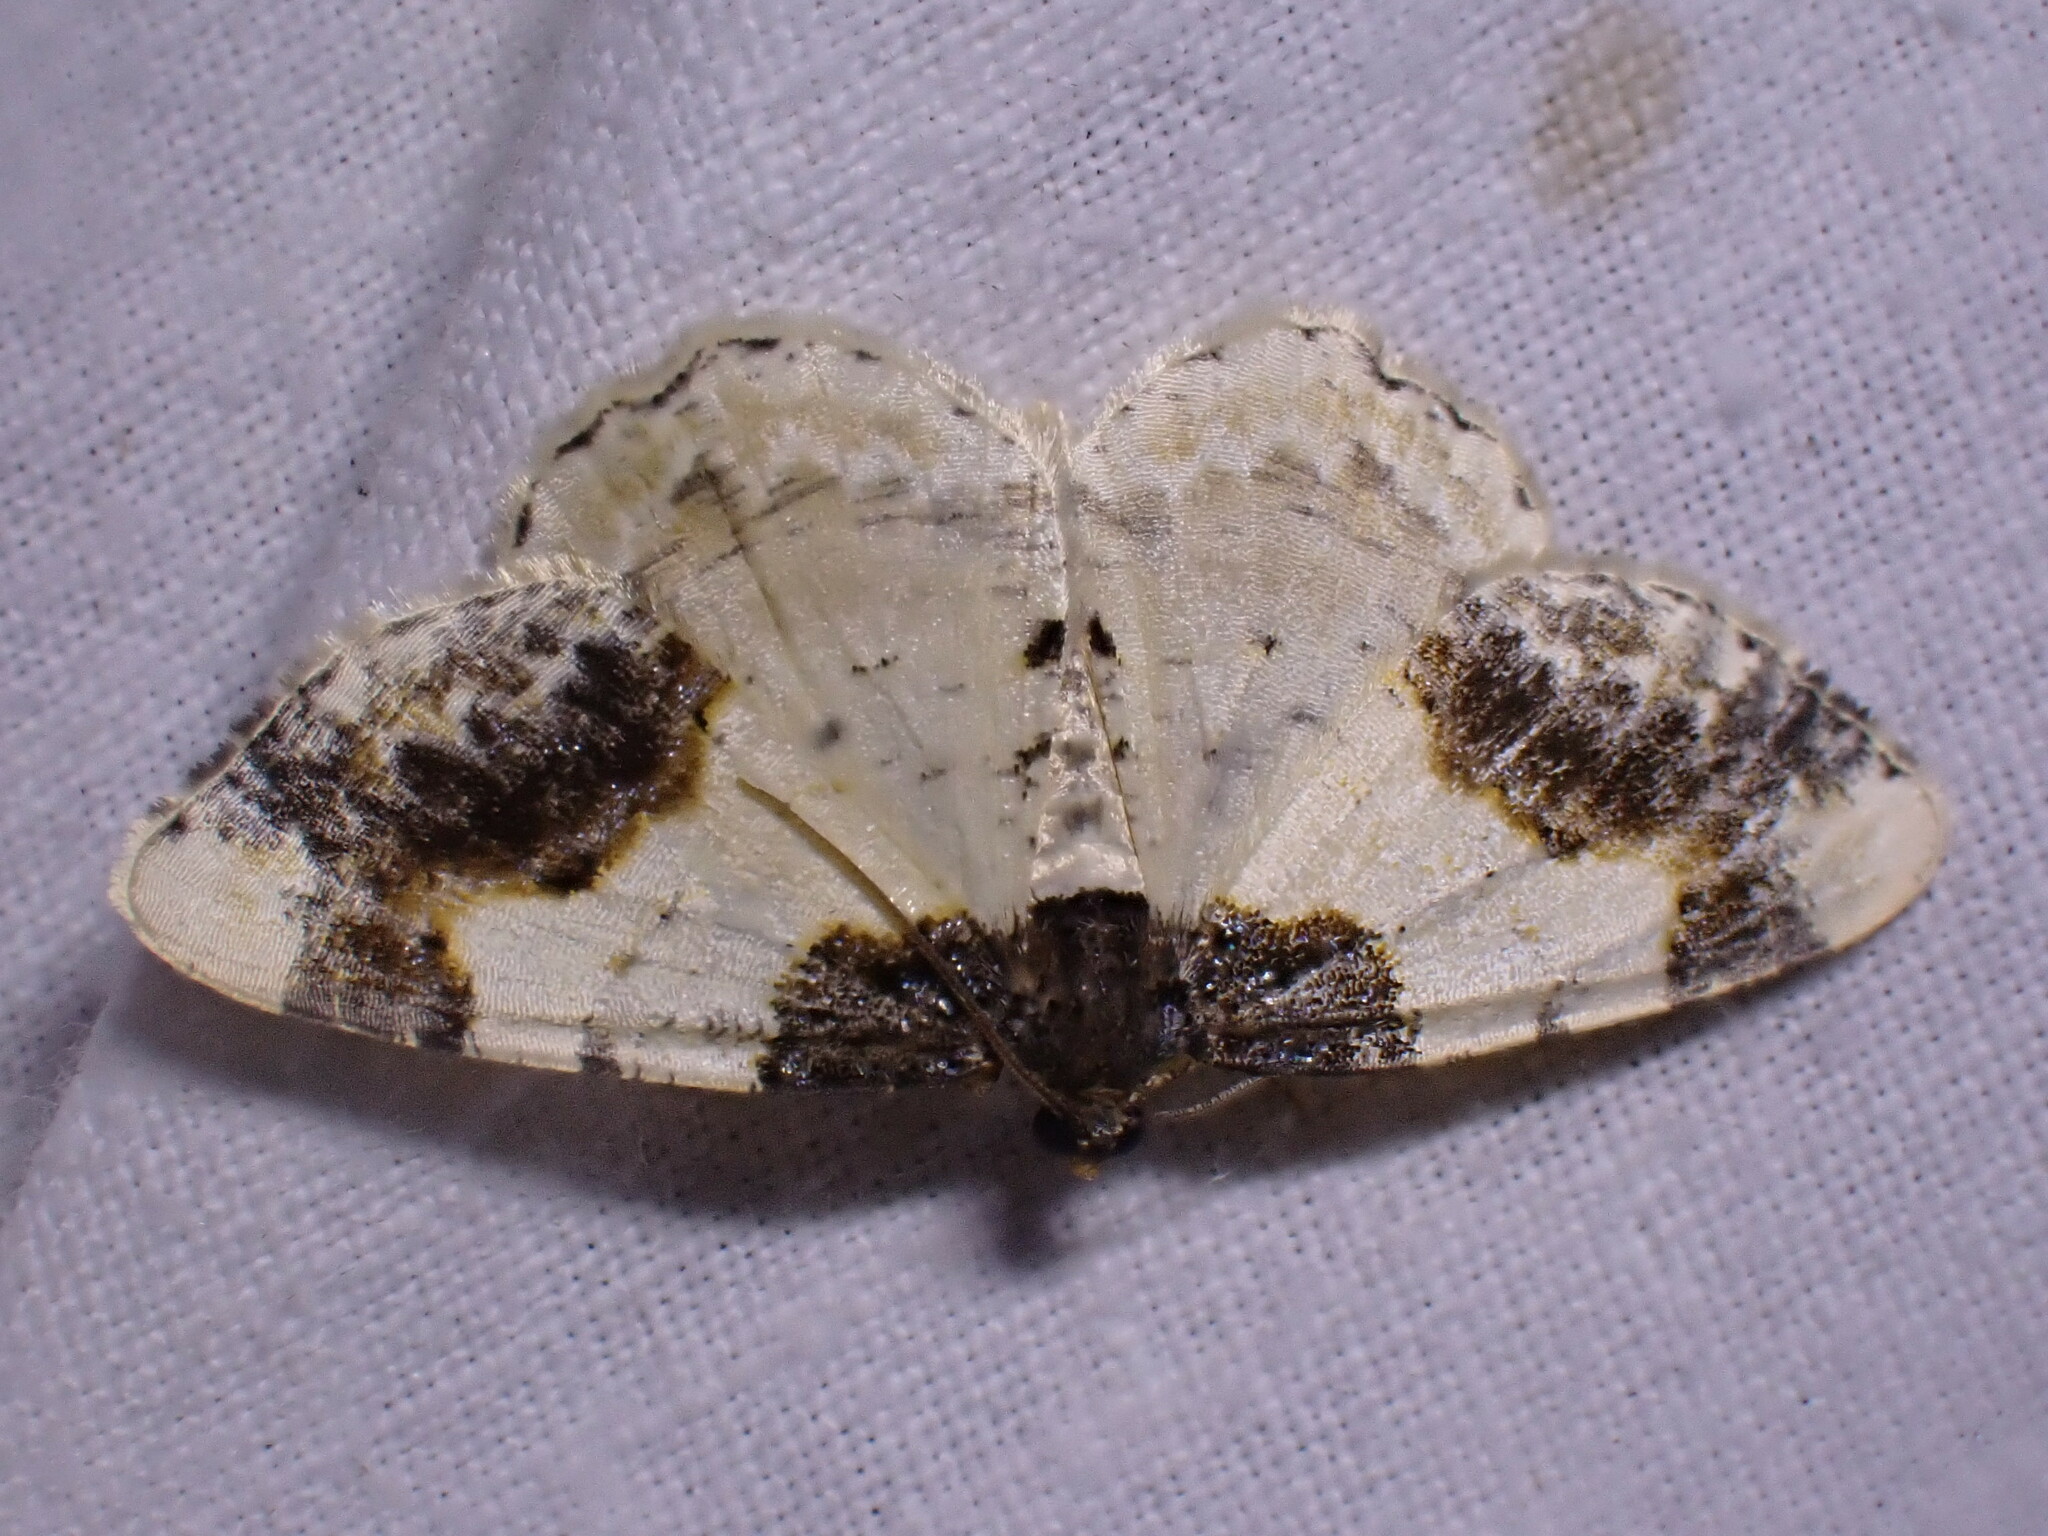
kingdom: Animalia
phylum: Arthropoda
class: Insecta
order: Lepidoptera
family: Geometridae
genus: Ligdia
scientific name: Ligdia adustata
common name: Scorched carpet
